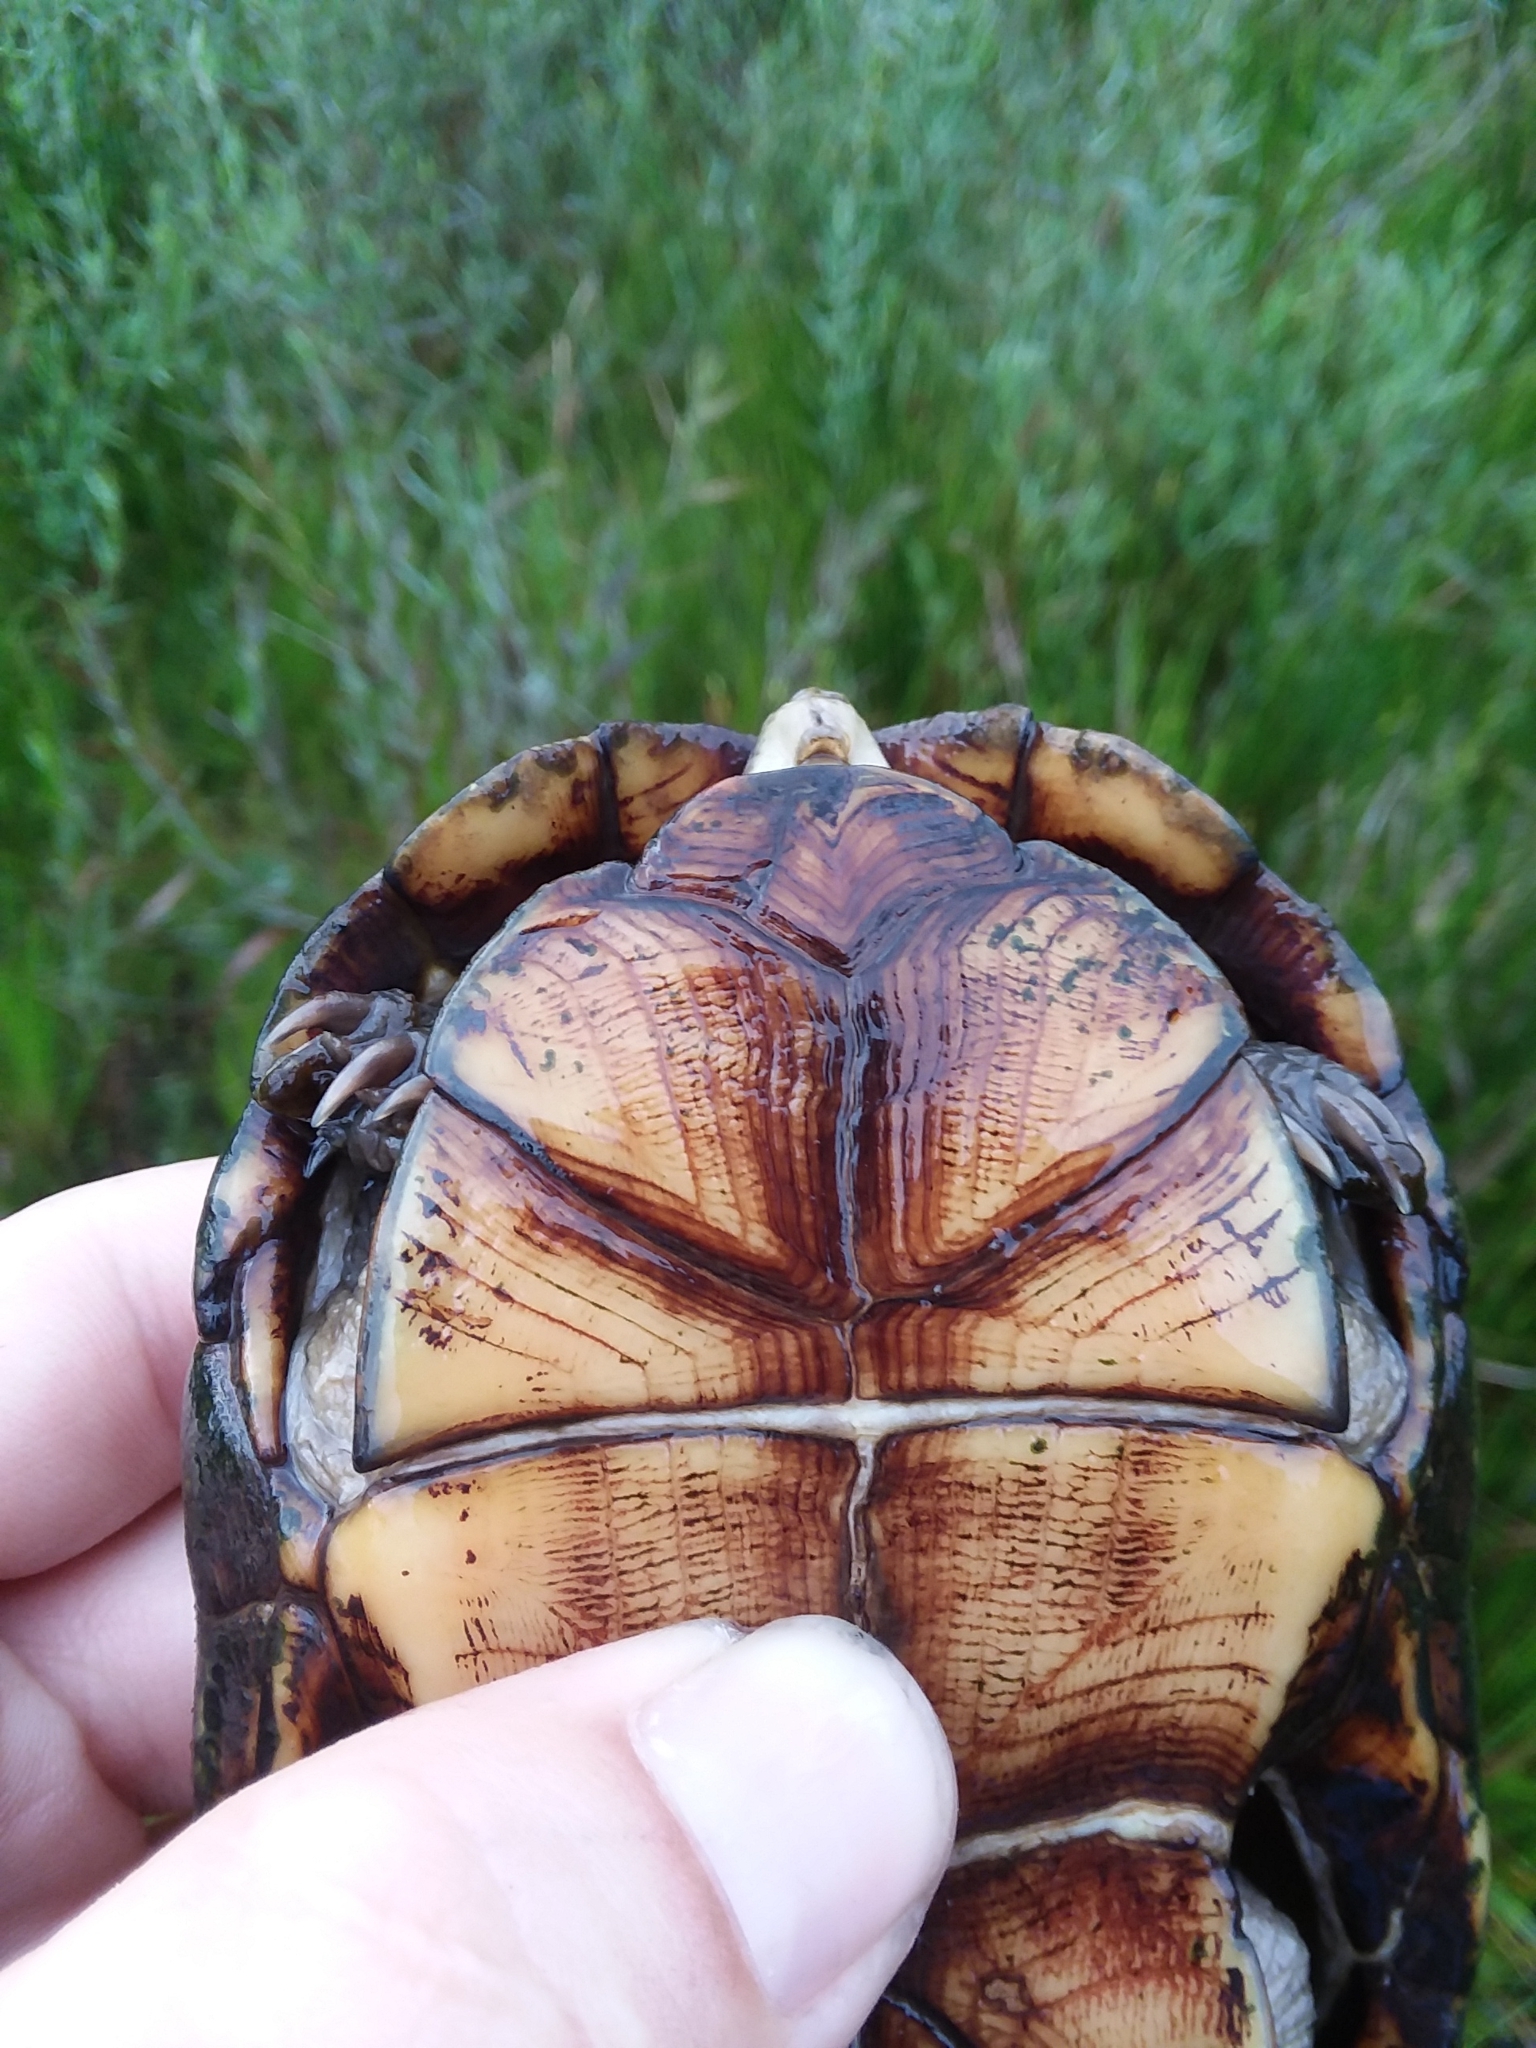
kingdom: Animalia
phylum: Chordata
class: Testudines
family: Kinosternidae
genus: Kinosternon
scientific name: Kinosternon subrubrum
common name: Eastern mud turtle
